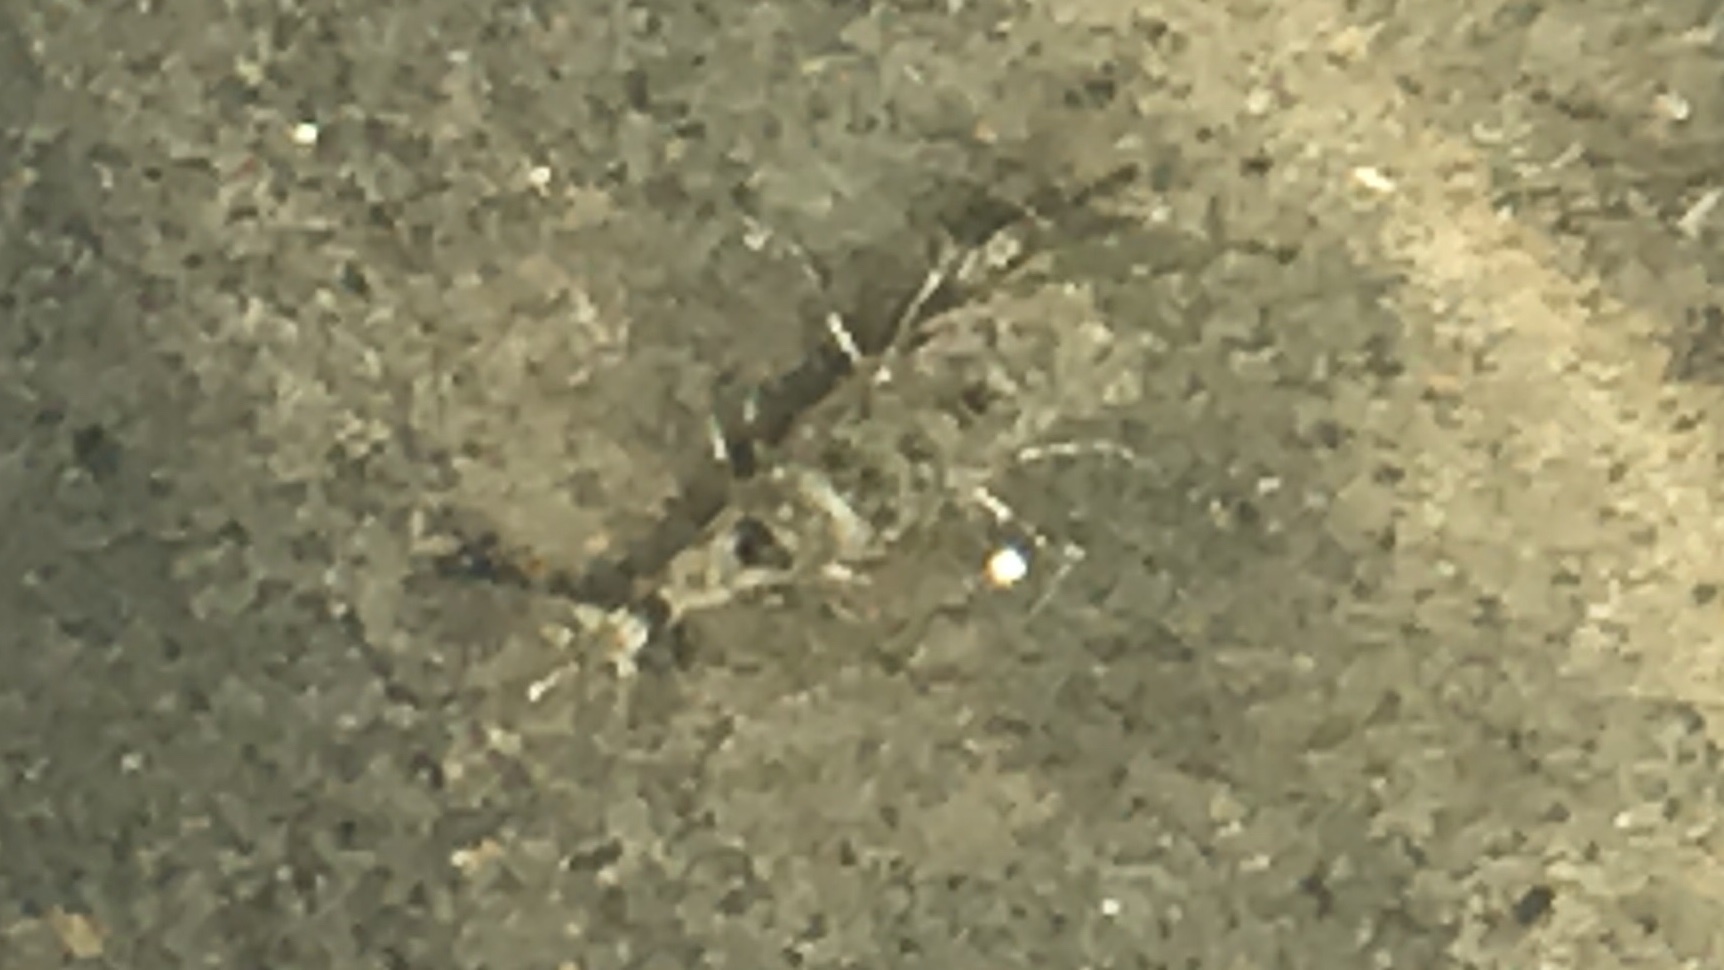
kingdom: Animalia
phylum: Arthropoda
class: Malacostraca
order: Decapoda
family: Crangonidae
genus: Crangon
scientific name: Crangon septemspinosa
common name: Bail shrimp
